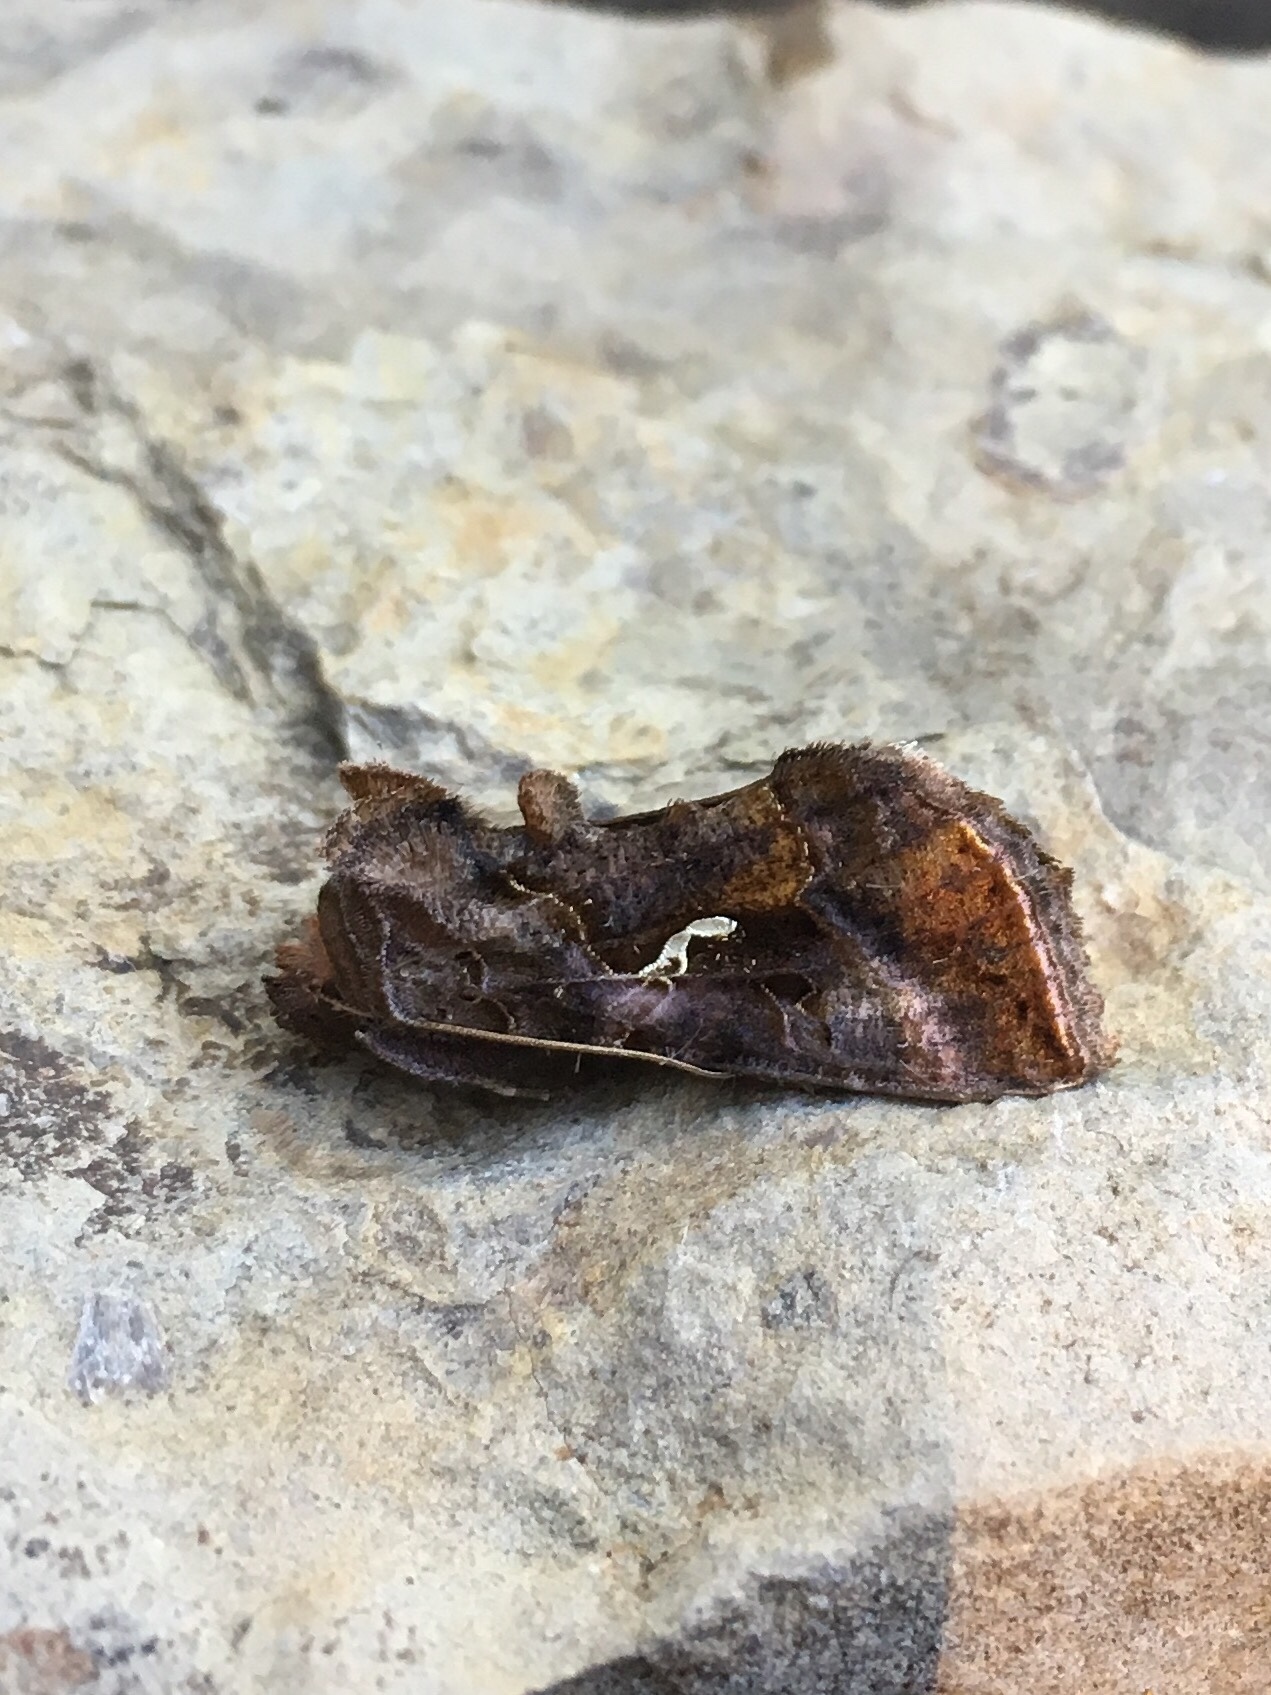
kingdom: Animalia
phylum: Arthropoda
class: Insecta
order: Lepidoptera
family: Noctuidae
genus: Autographa
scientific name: Autographa precationis
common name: Common looper moth
